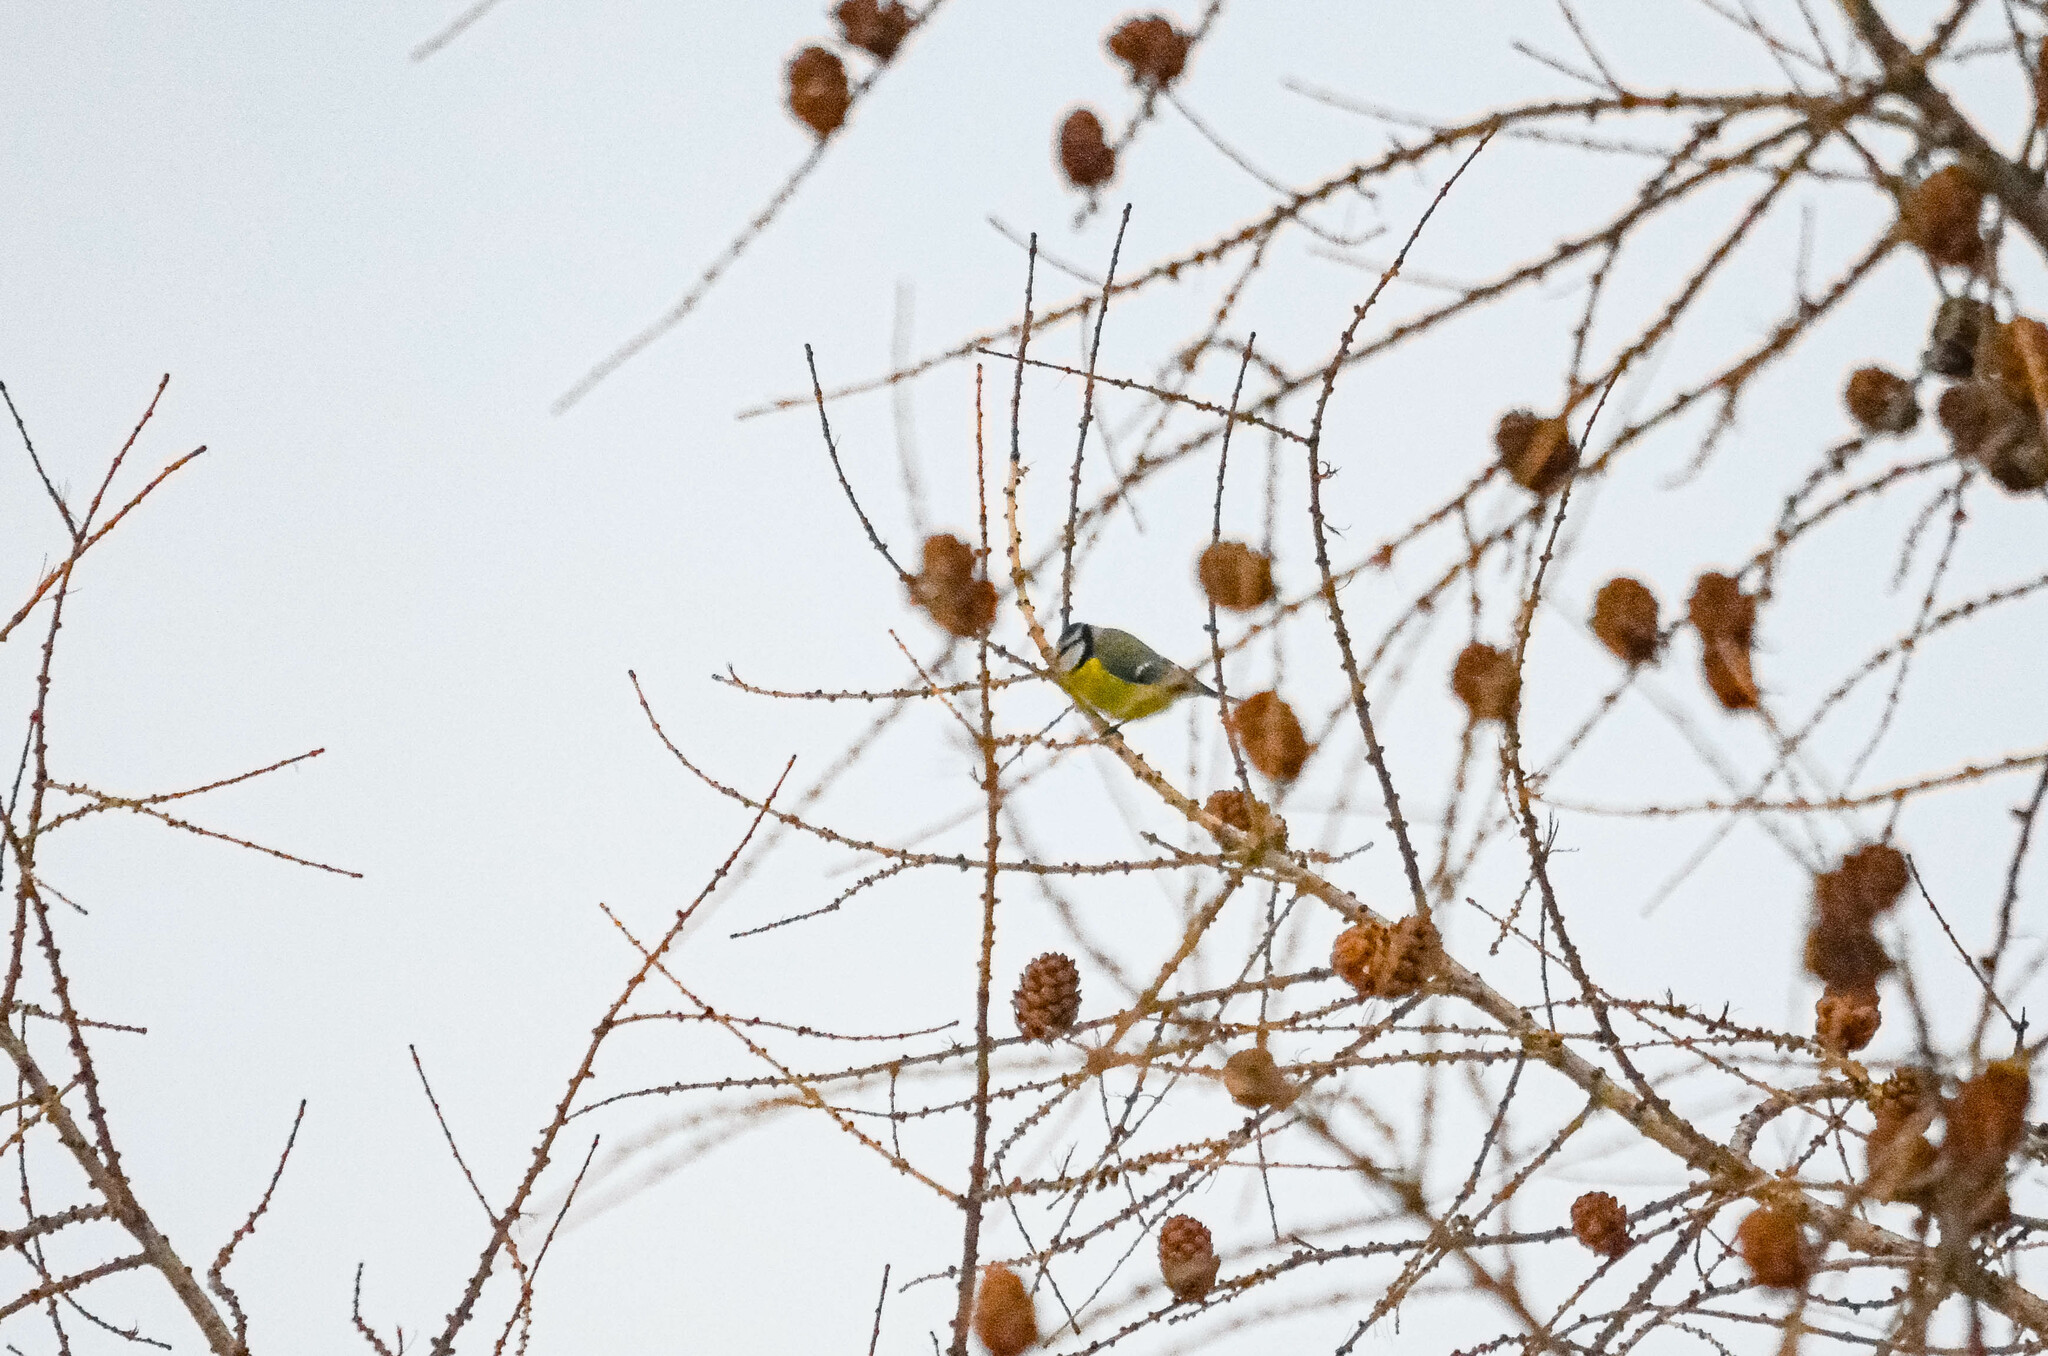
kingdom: Animalia
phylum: Chordata
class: Aves
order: Passeriformes
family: Paridae
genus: Cyanistes
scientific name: Cyanistes caeruleus
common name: Eurasian blue tit
